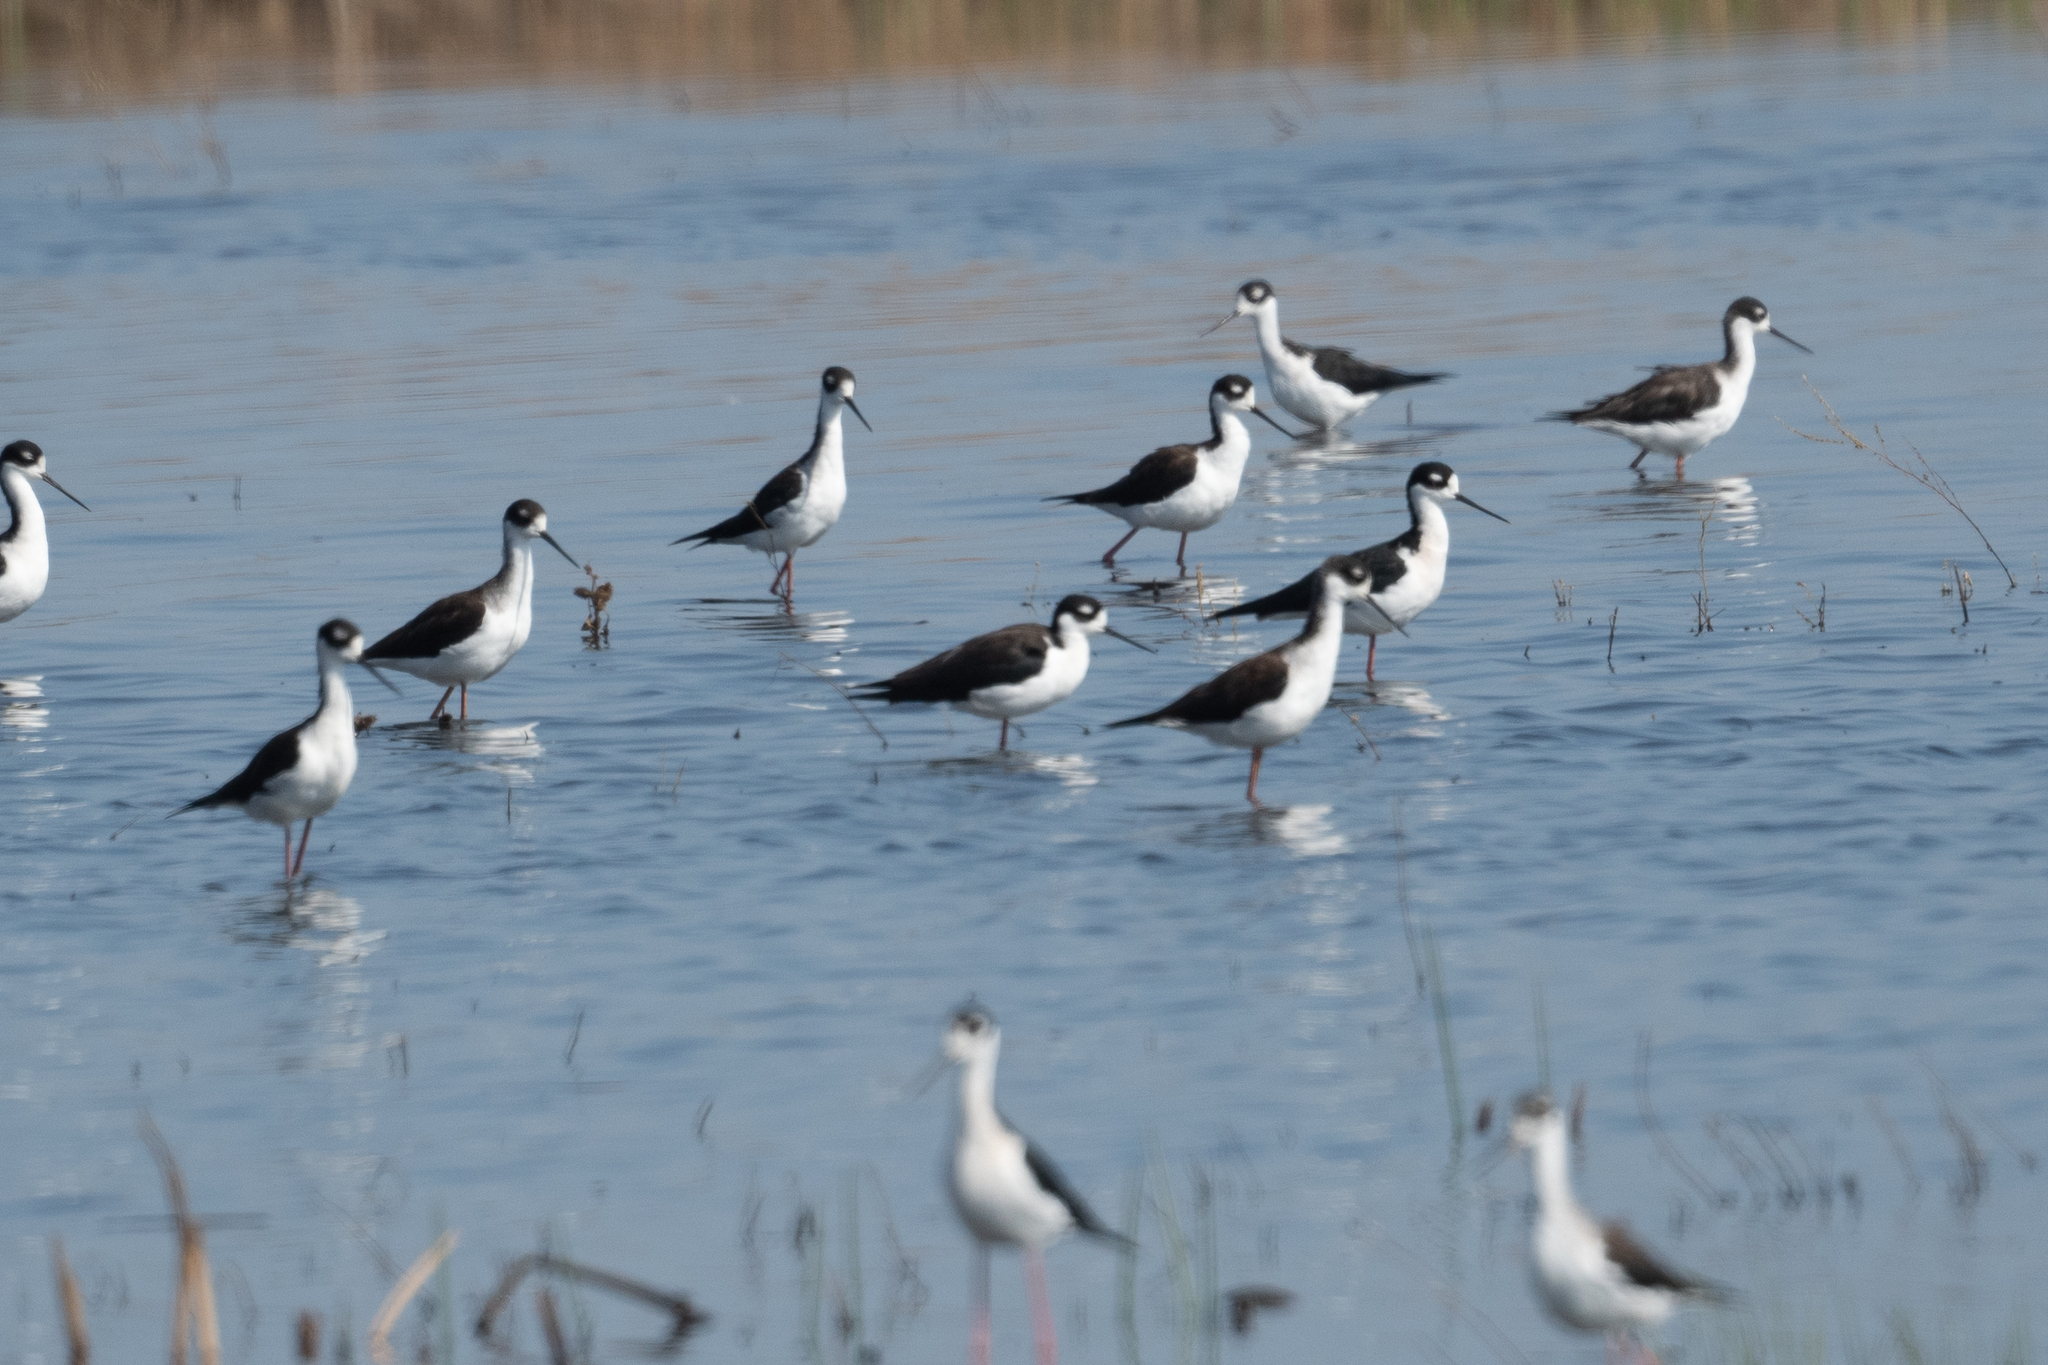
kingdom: Animalia
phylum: Chordata
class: Aves
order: Charadriiformes
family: Recurvirostridae
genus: Himantopus
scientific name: Himantopus mexicanus
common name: Black-necked stilt
